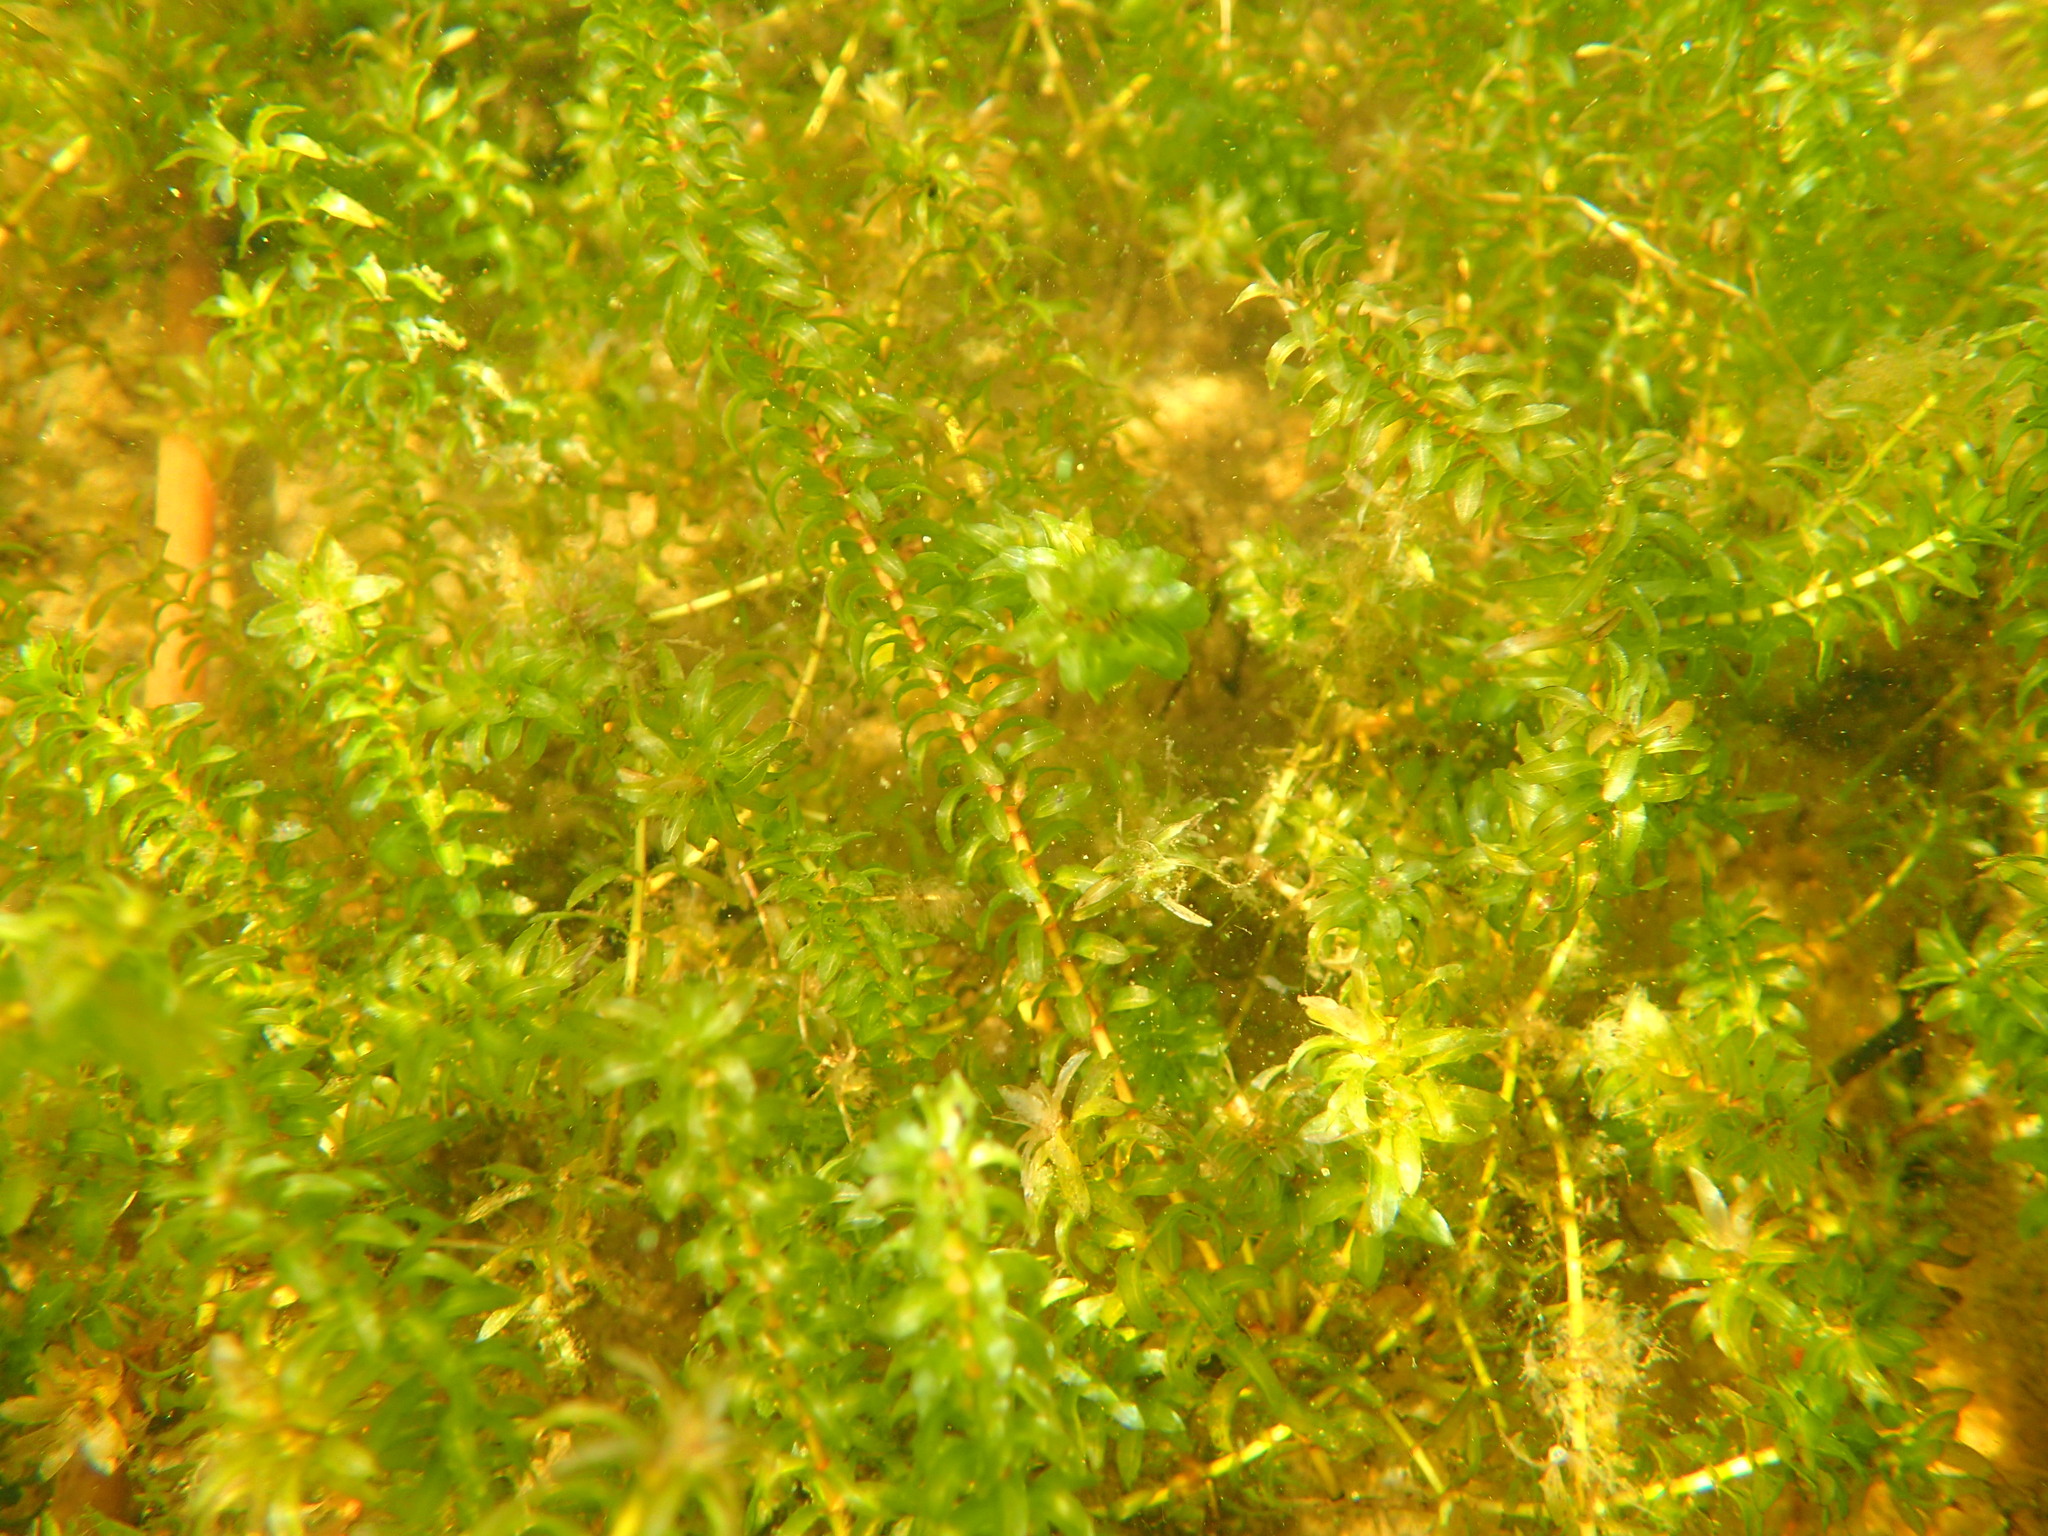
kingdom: Plantae
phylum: Tracheophyta
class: Liliopsida
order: Alismatales
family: Hydrocharitaceae
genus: Elodea
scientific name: Elodea canadensis
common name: Canadian waterweed
